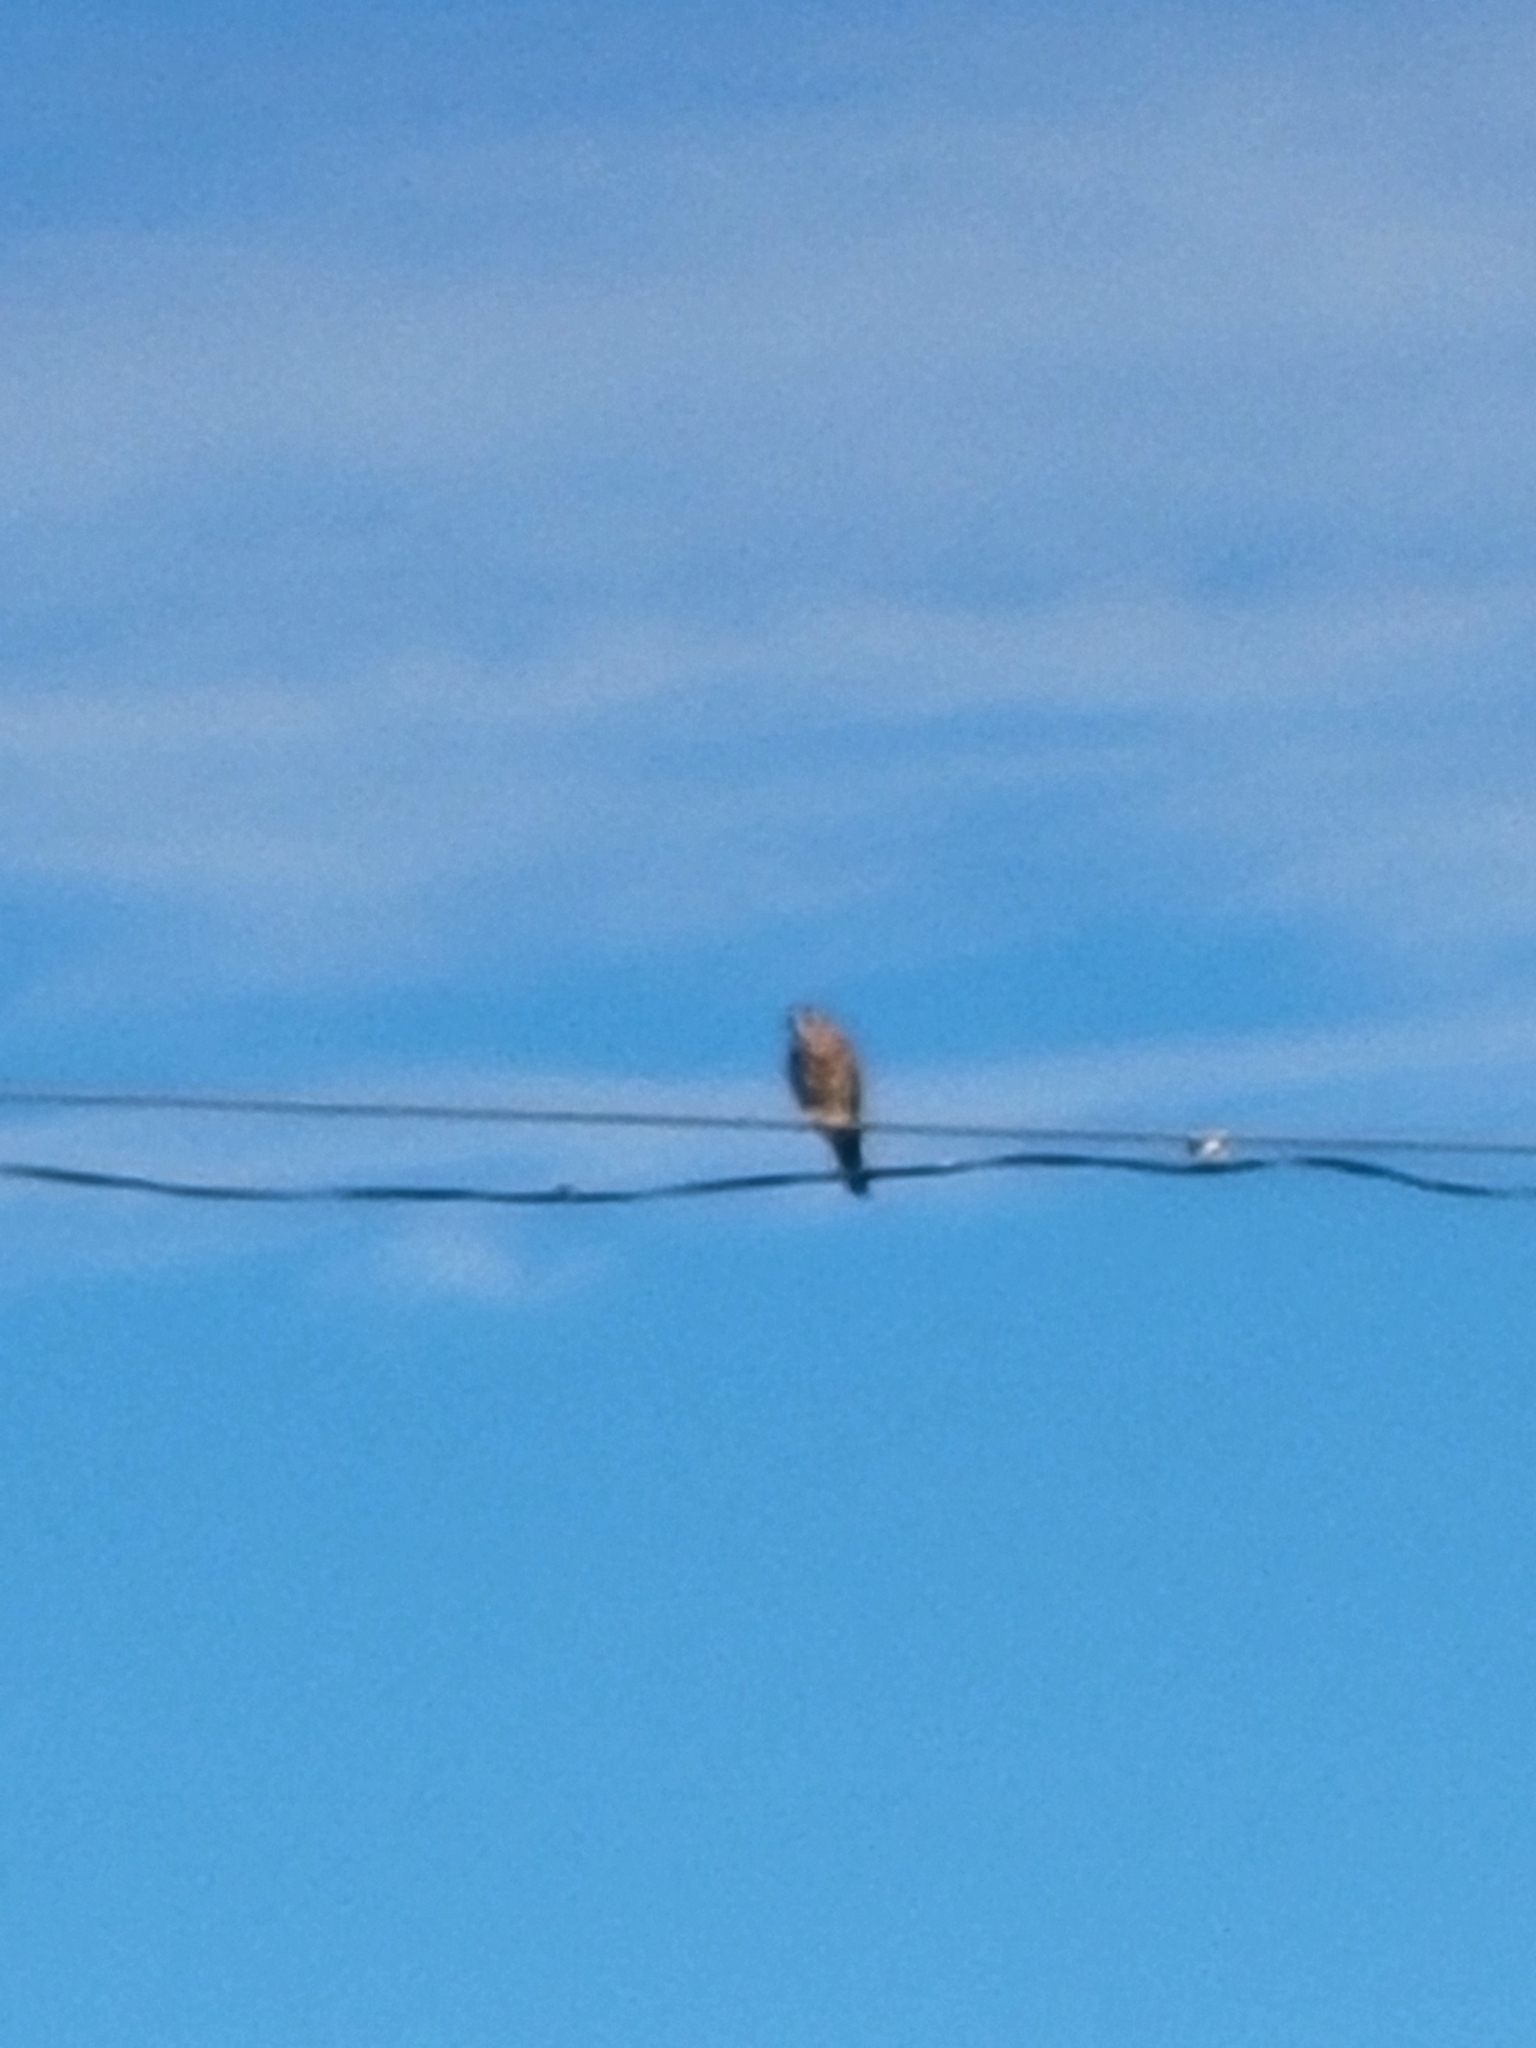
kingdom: Animalia
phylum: Chordata
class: Aves
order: Falconiformes
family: Falconidae
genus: Falco
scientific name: Falco sparverius
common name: American kestrel
